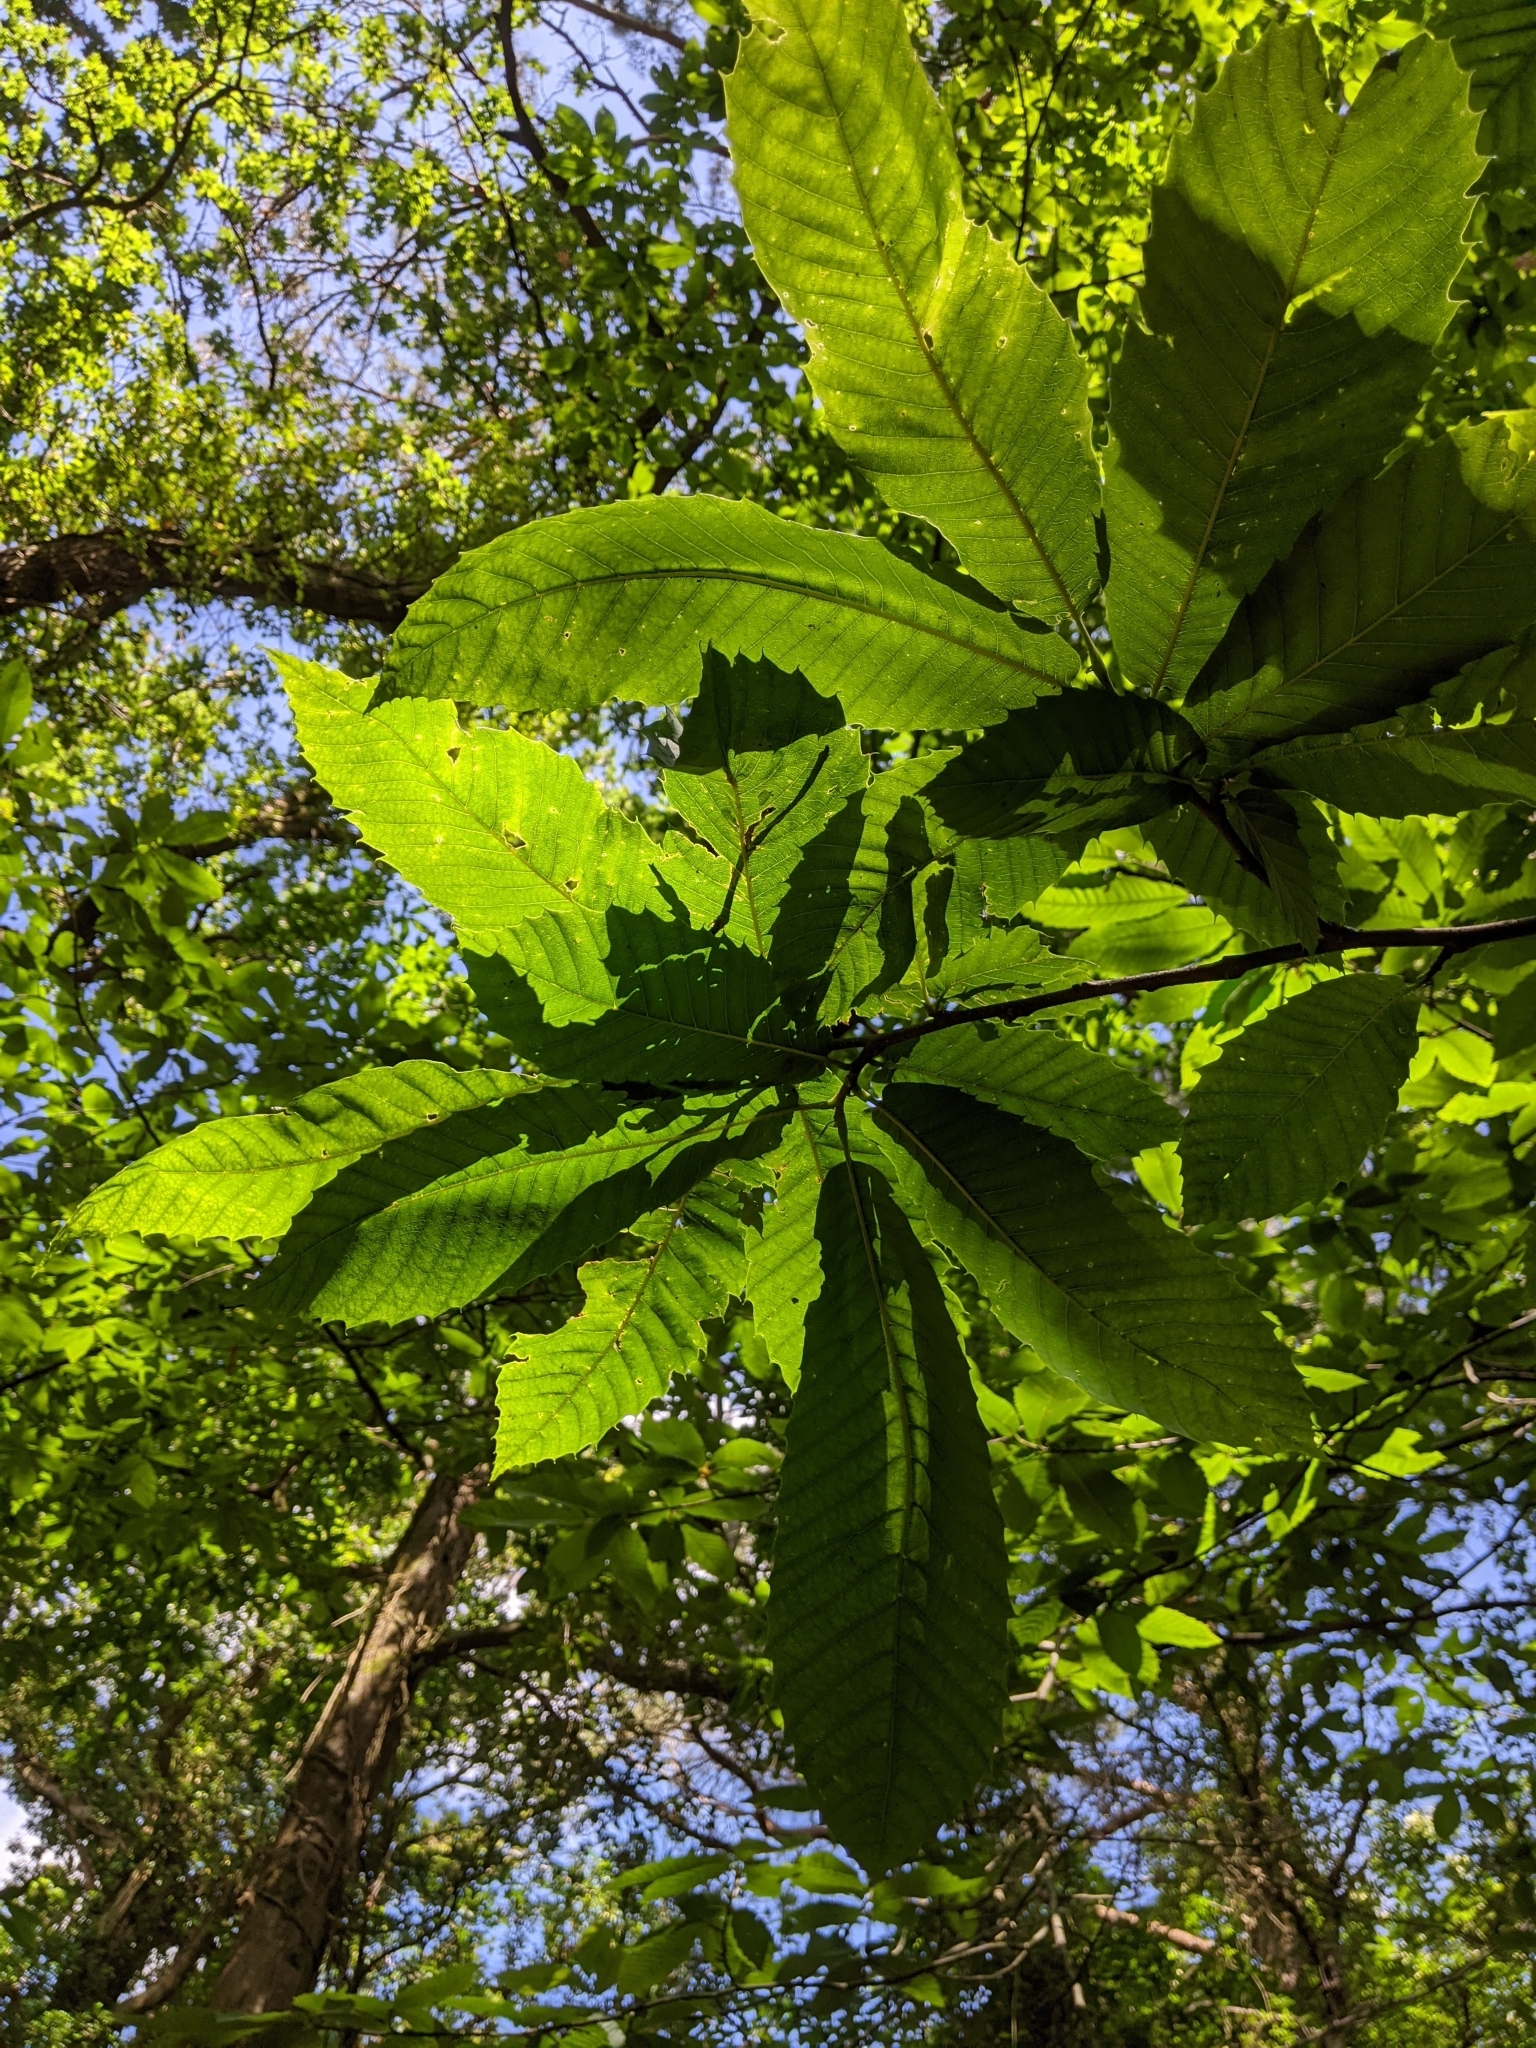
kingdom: Plantae
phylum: Tracheophyta
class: Magnoliopsida
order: Fagales
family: Fagaceae
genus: Castanea
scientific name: Castanea sativa
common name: Sweet chestnut
